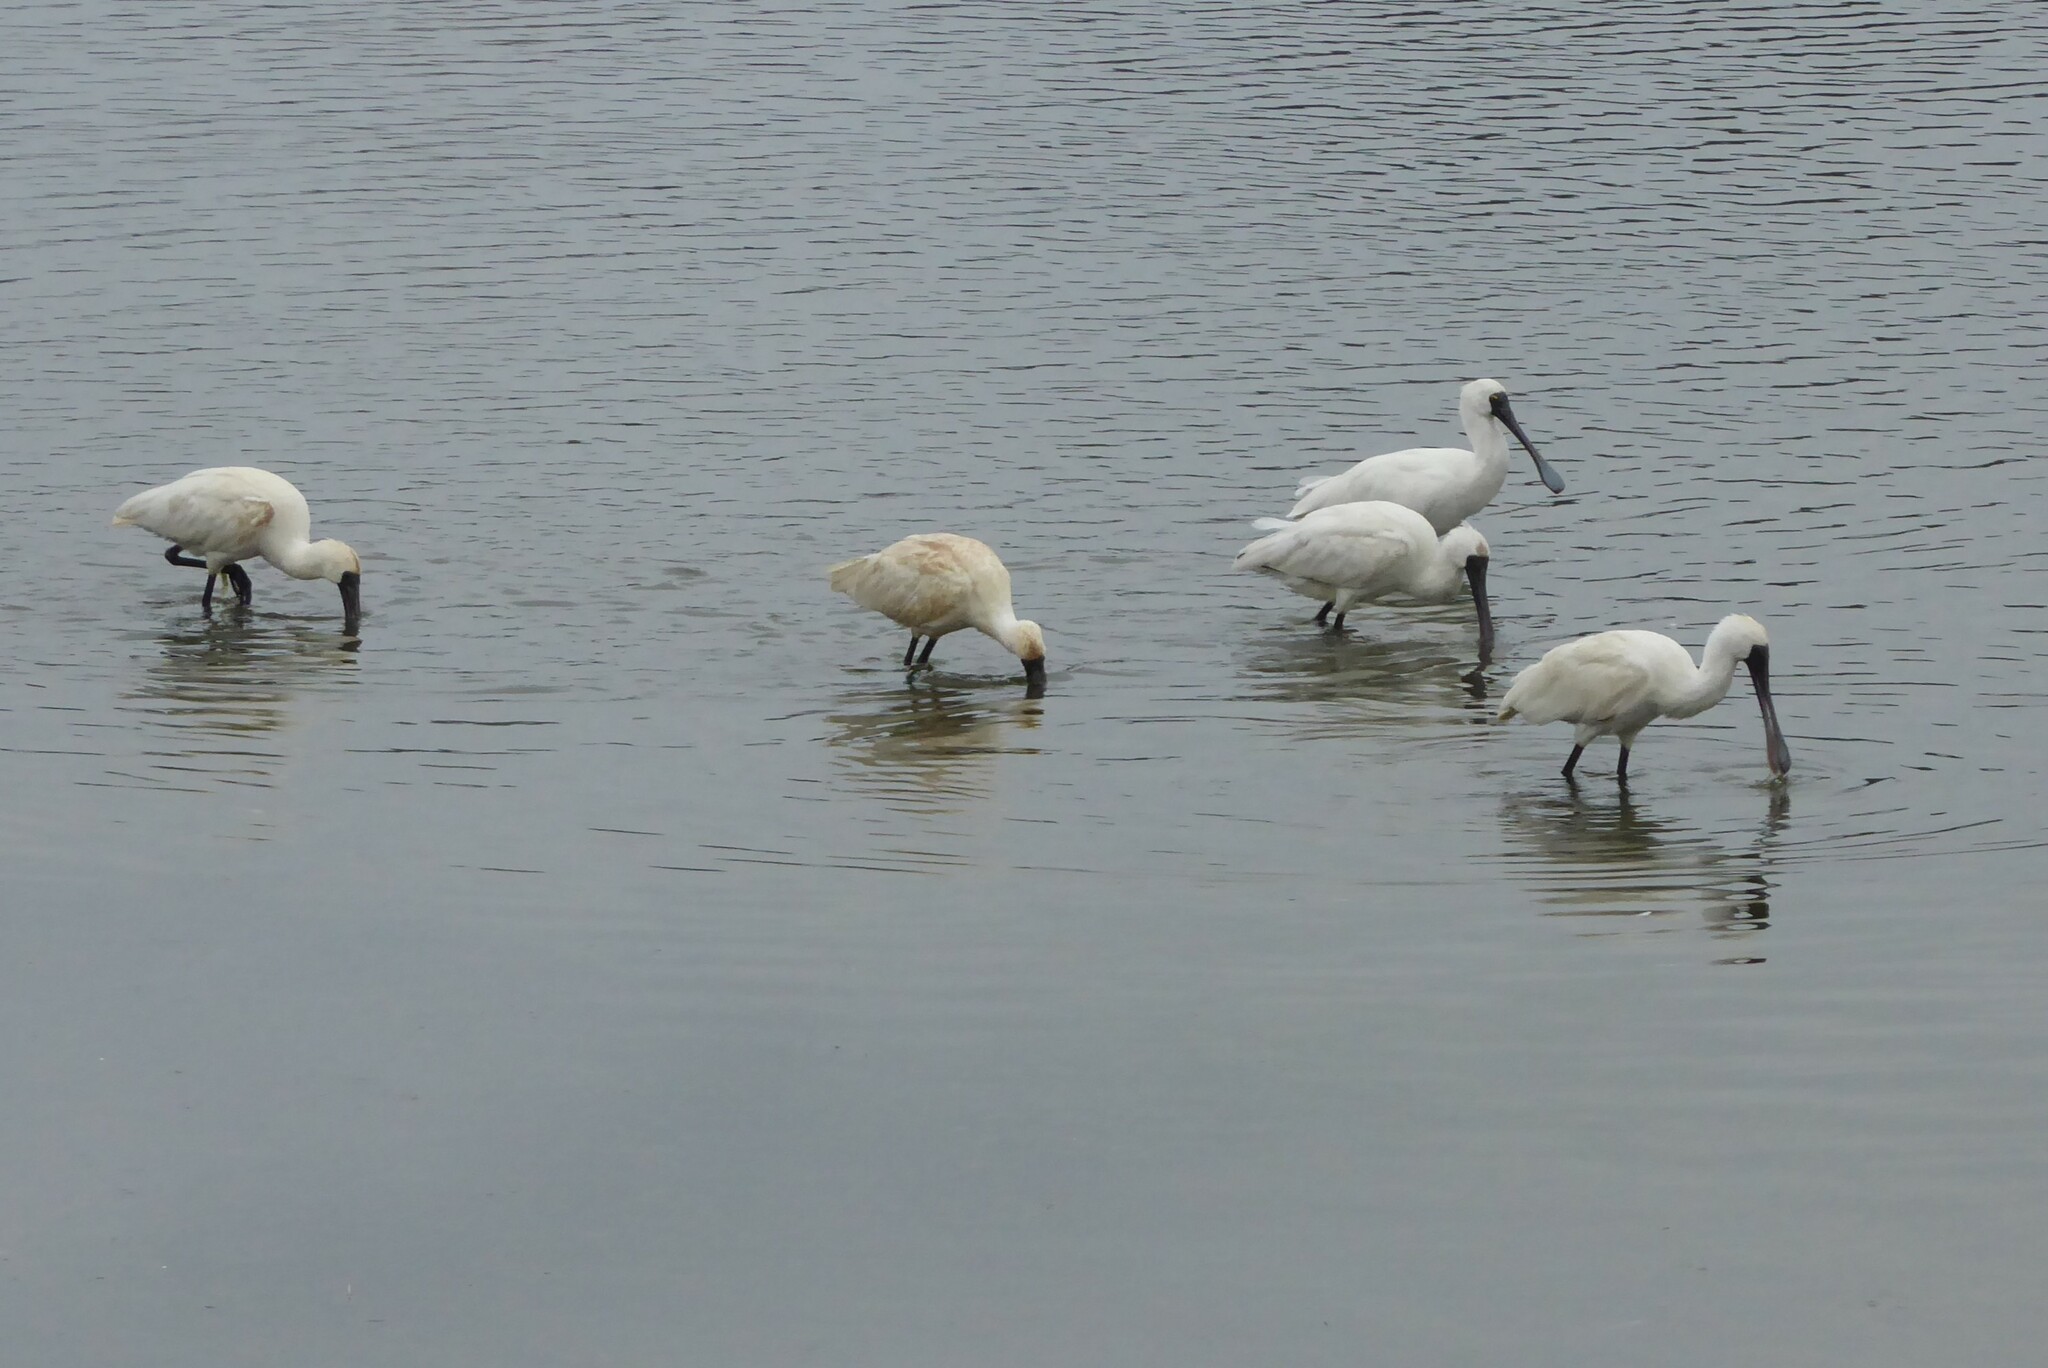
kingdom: Animalia
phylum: Chordata
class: Aves
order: Pelecaniformes
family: Threskiornithidae
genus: Platalea
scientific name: Platalea regia
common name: Royal spoonbill
